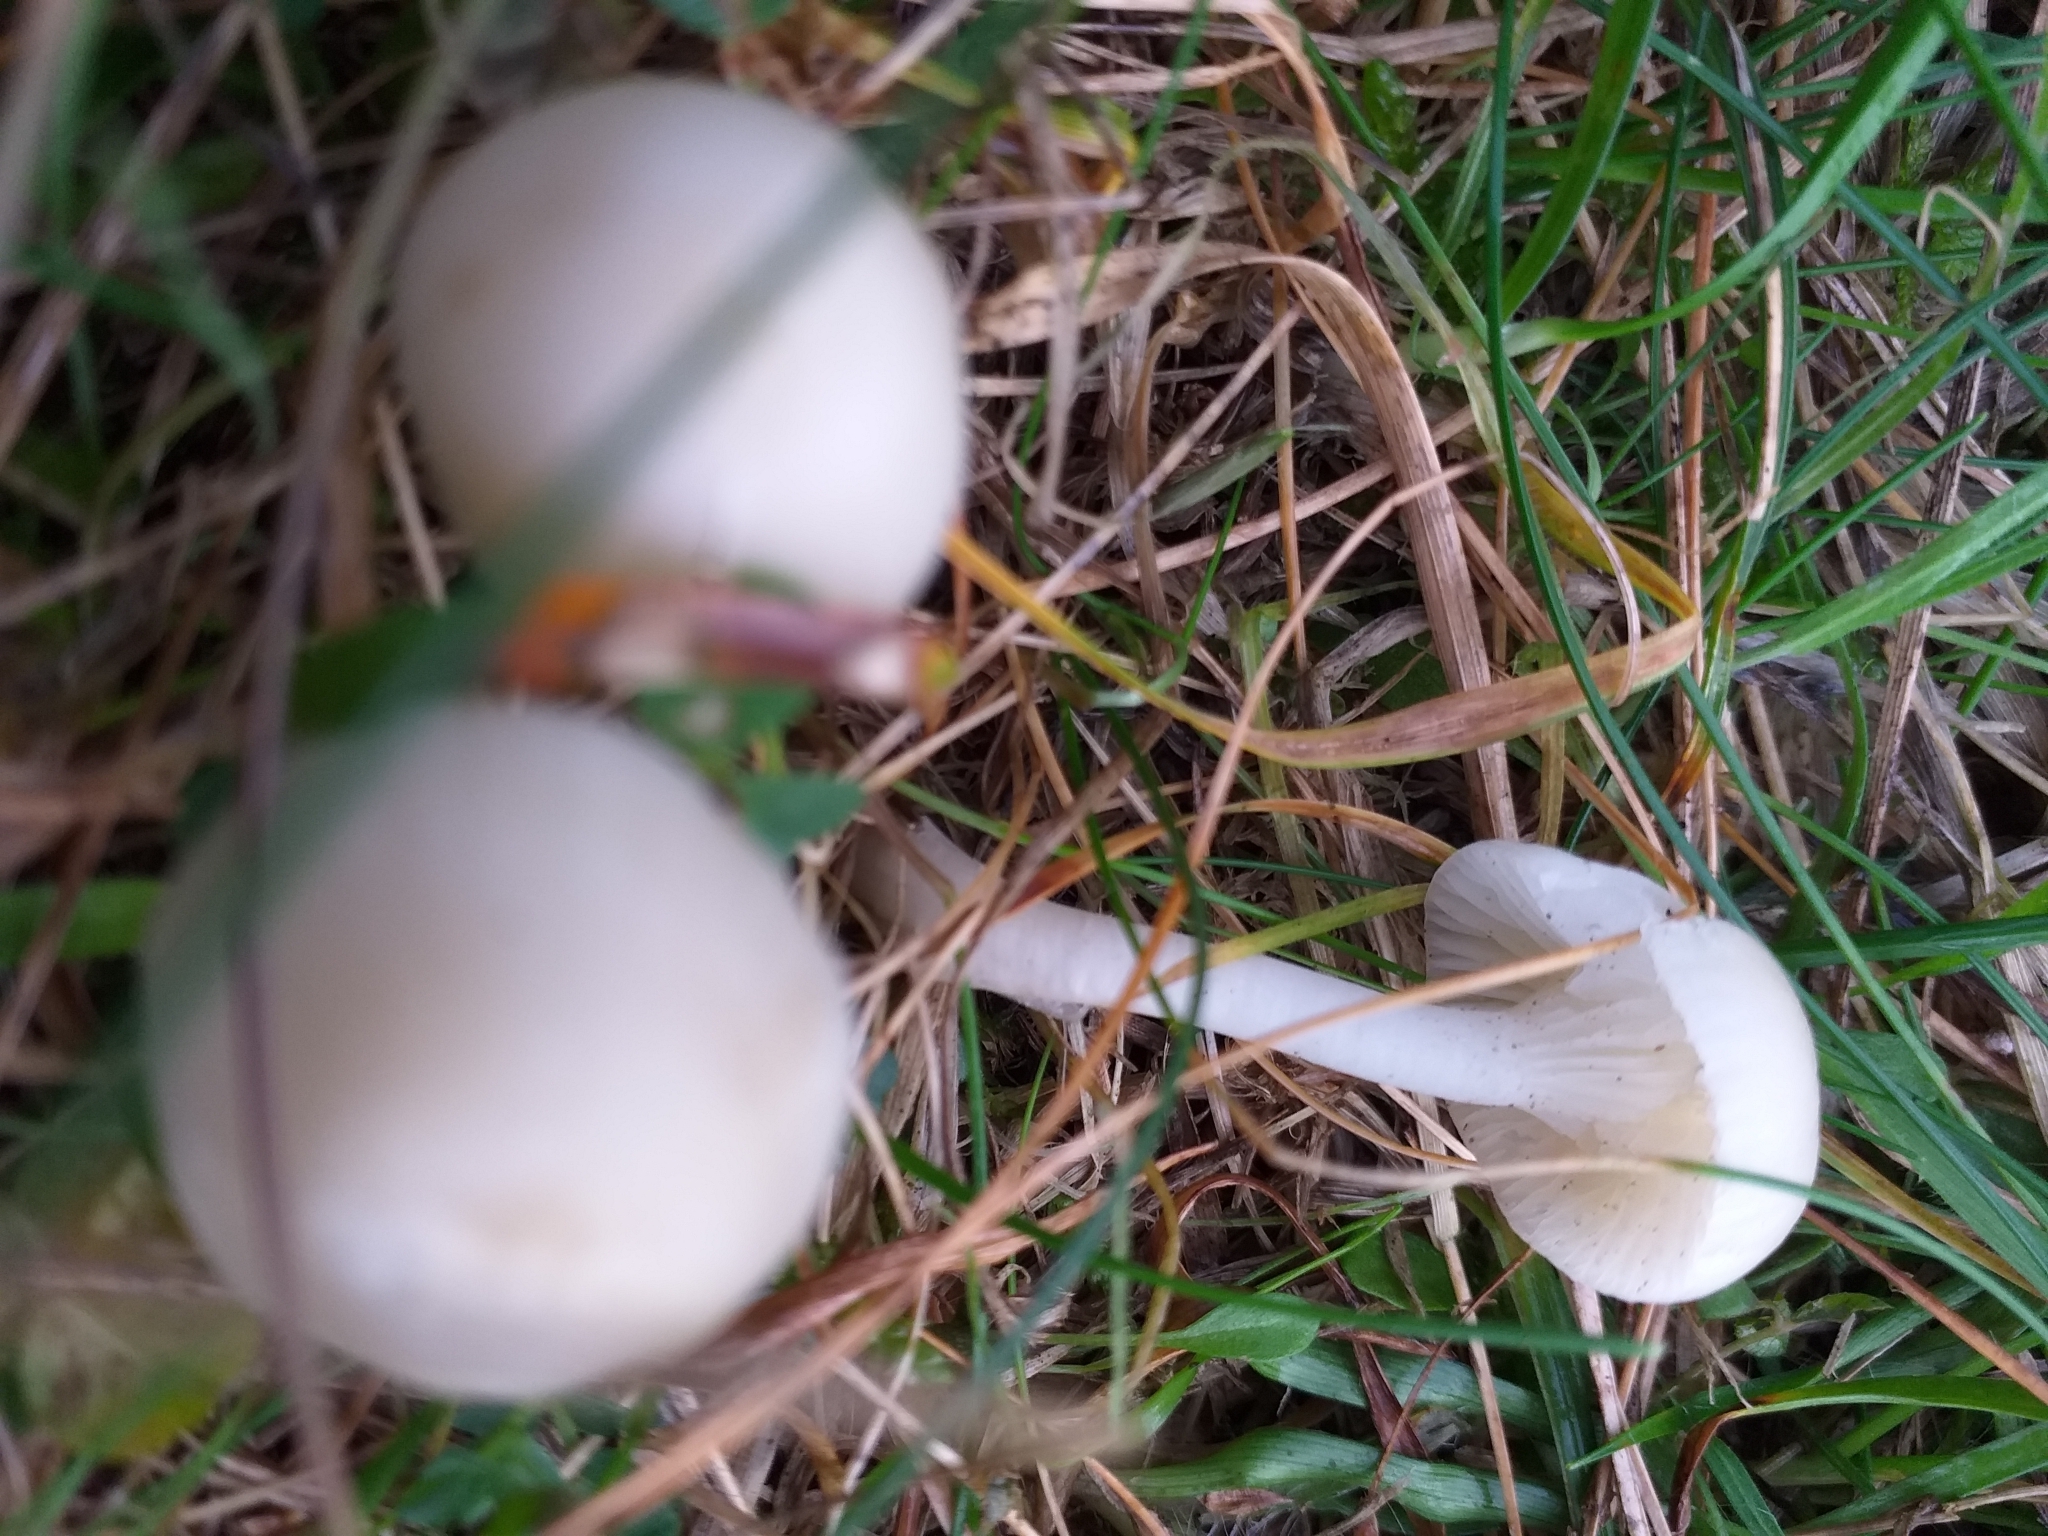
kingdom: Fungi
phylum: Basidiomycota
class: Agaricomycetes
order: Agaricales
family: Hygrophoraceae
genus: Cuphophyllus
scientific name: Cuphophyllus virgineus
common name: Snowy waxcap
